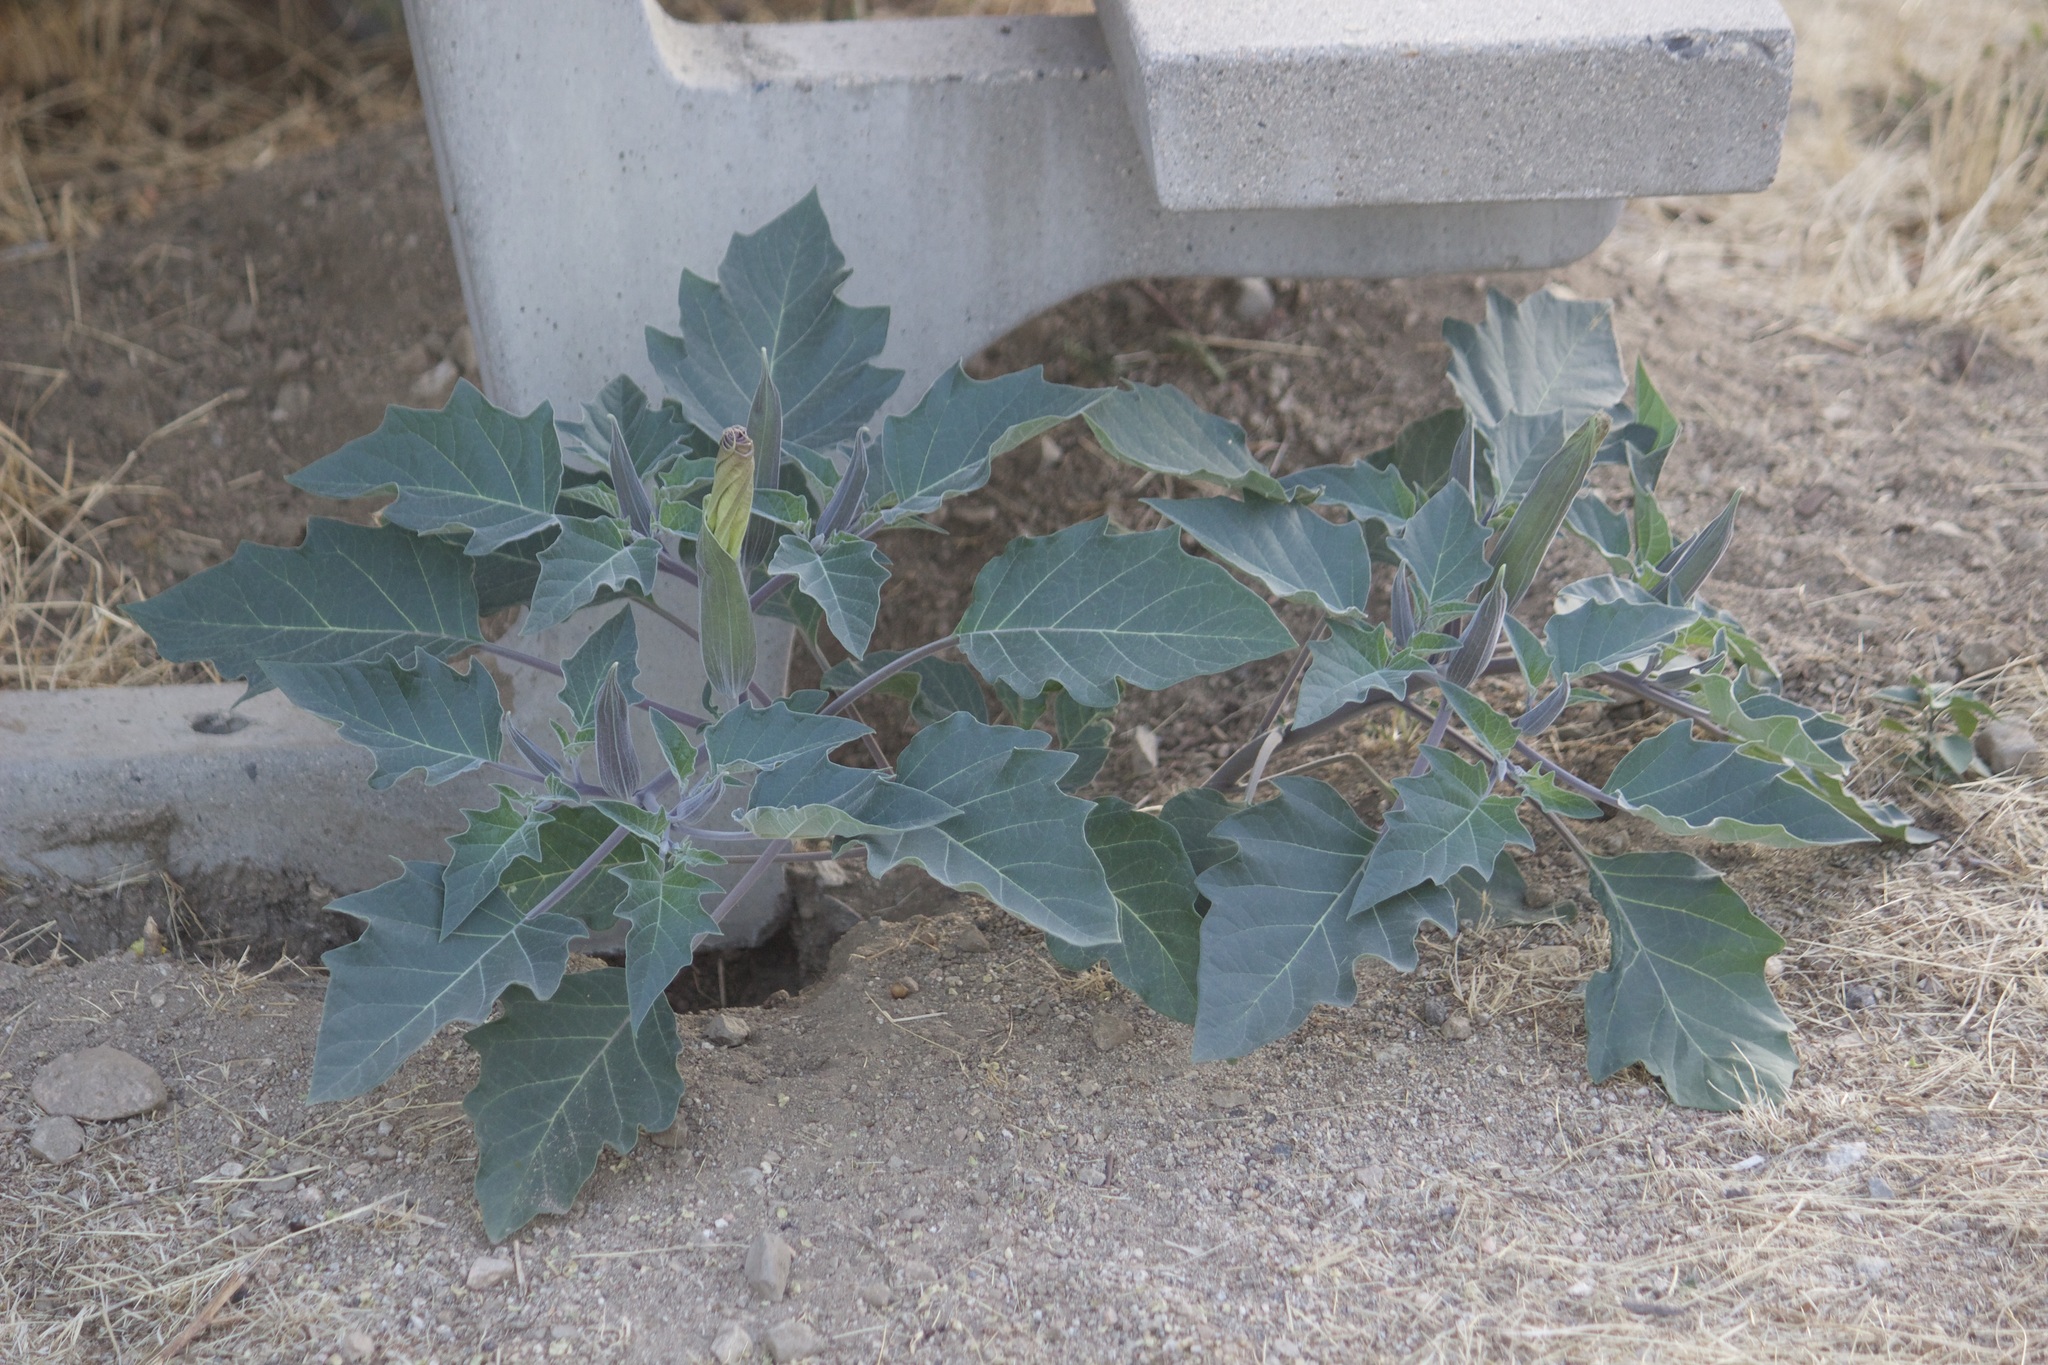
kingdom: Plantae
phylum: Tracheophyta
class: Magnoliopsida
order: Solanales
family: Solanaceae
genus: Datura
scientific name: Datura wrightii
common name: Sacred thorn-apple
